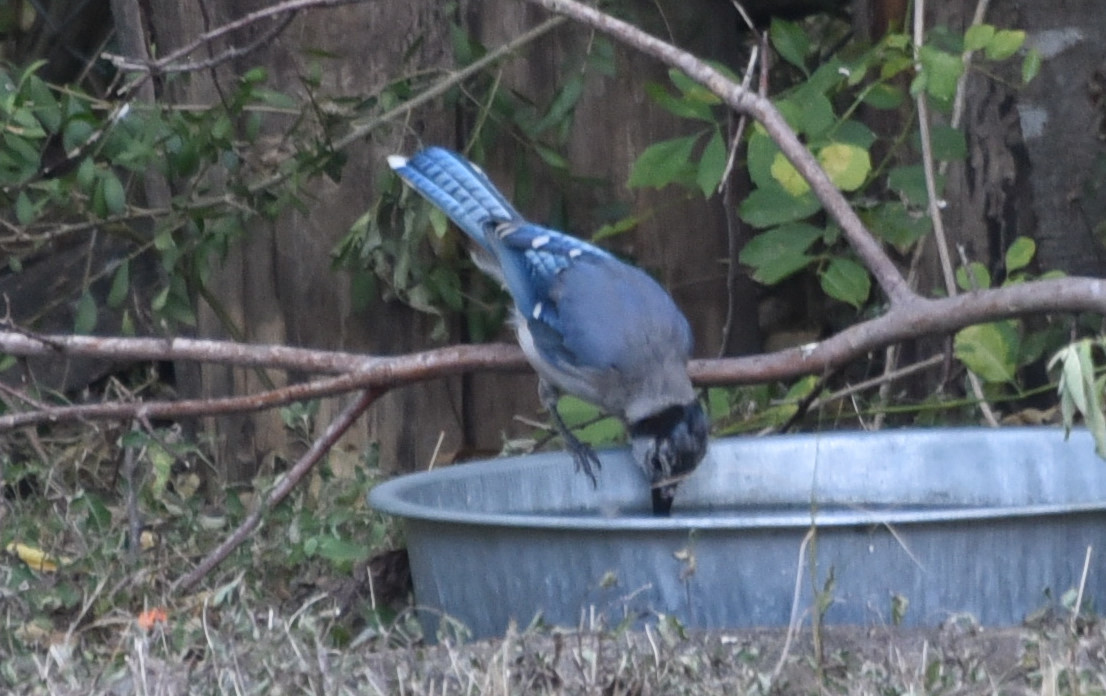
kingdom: Animalia
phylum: Chordata
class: Aves
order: Passeriformes
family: Corvidae
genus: Cyanocitta
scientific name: Cyanocitta cristata
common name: Blue jay
